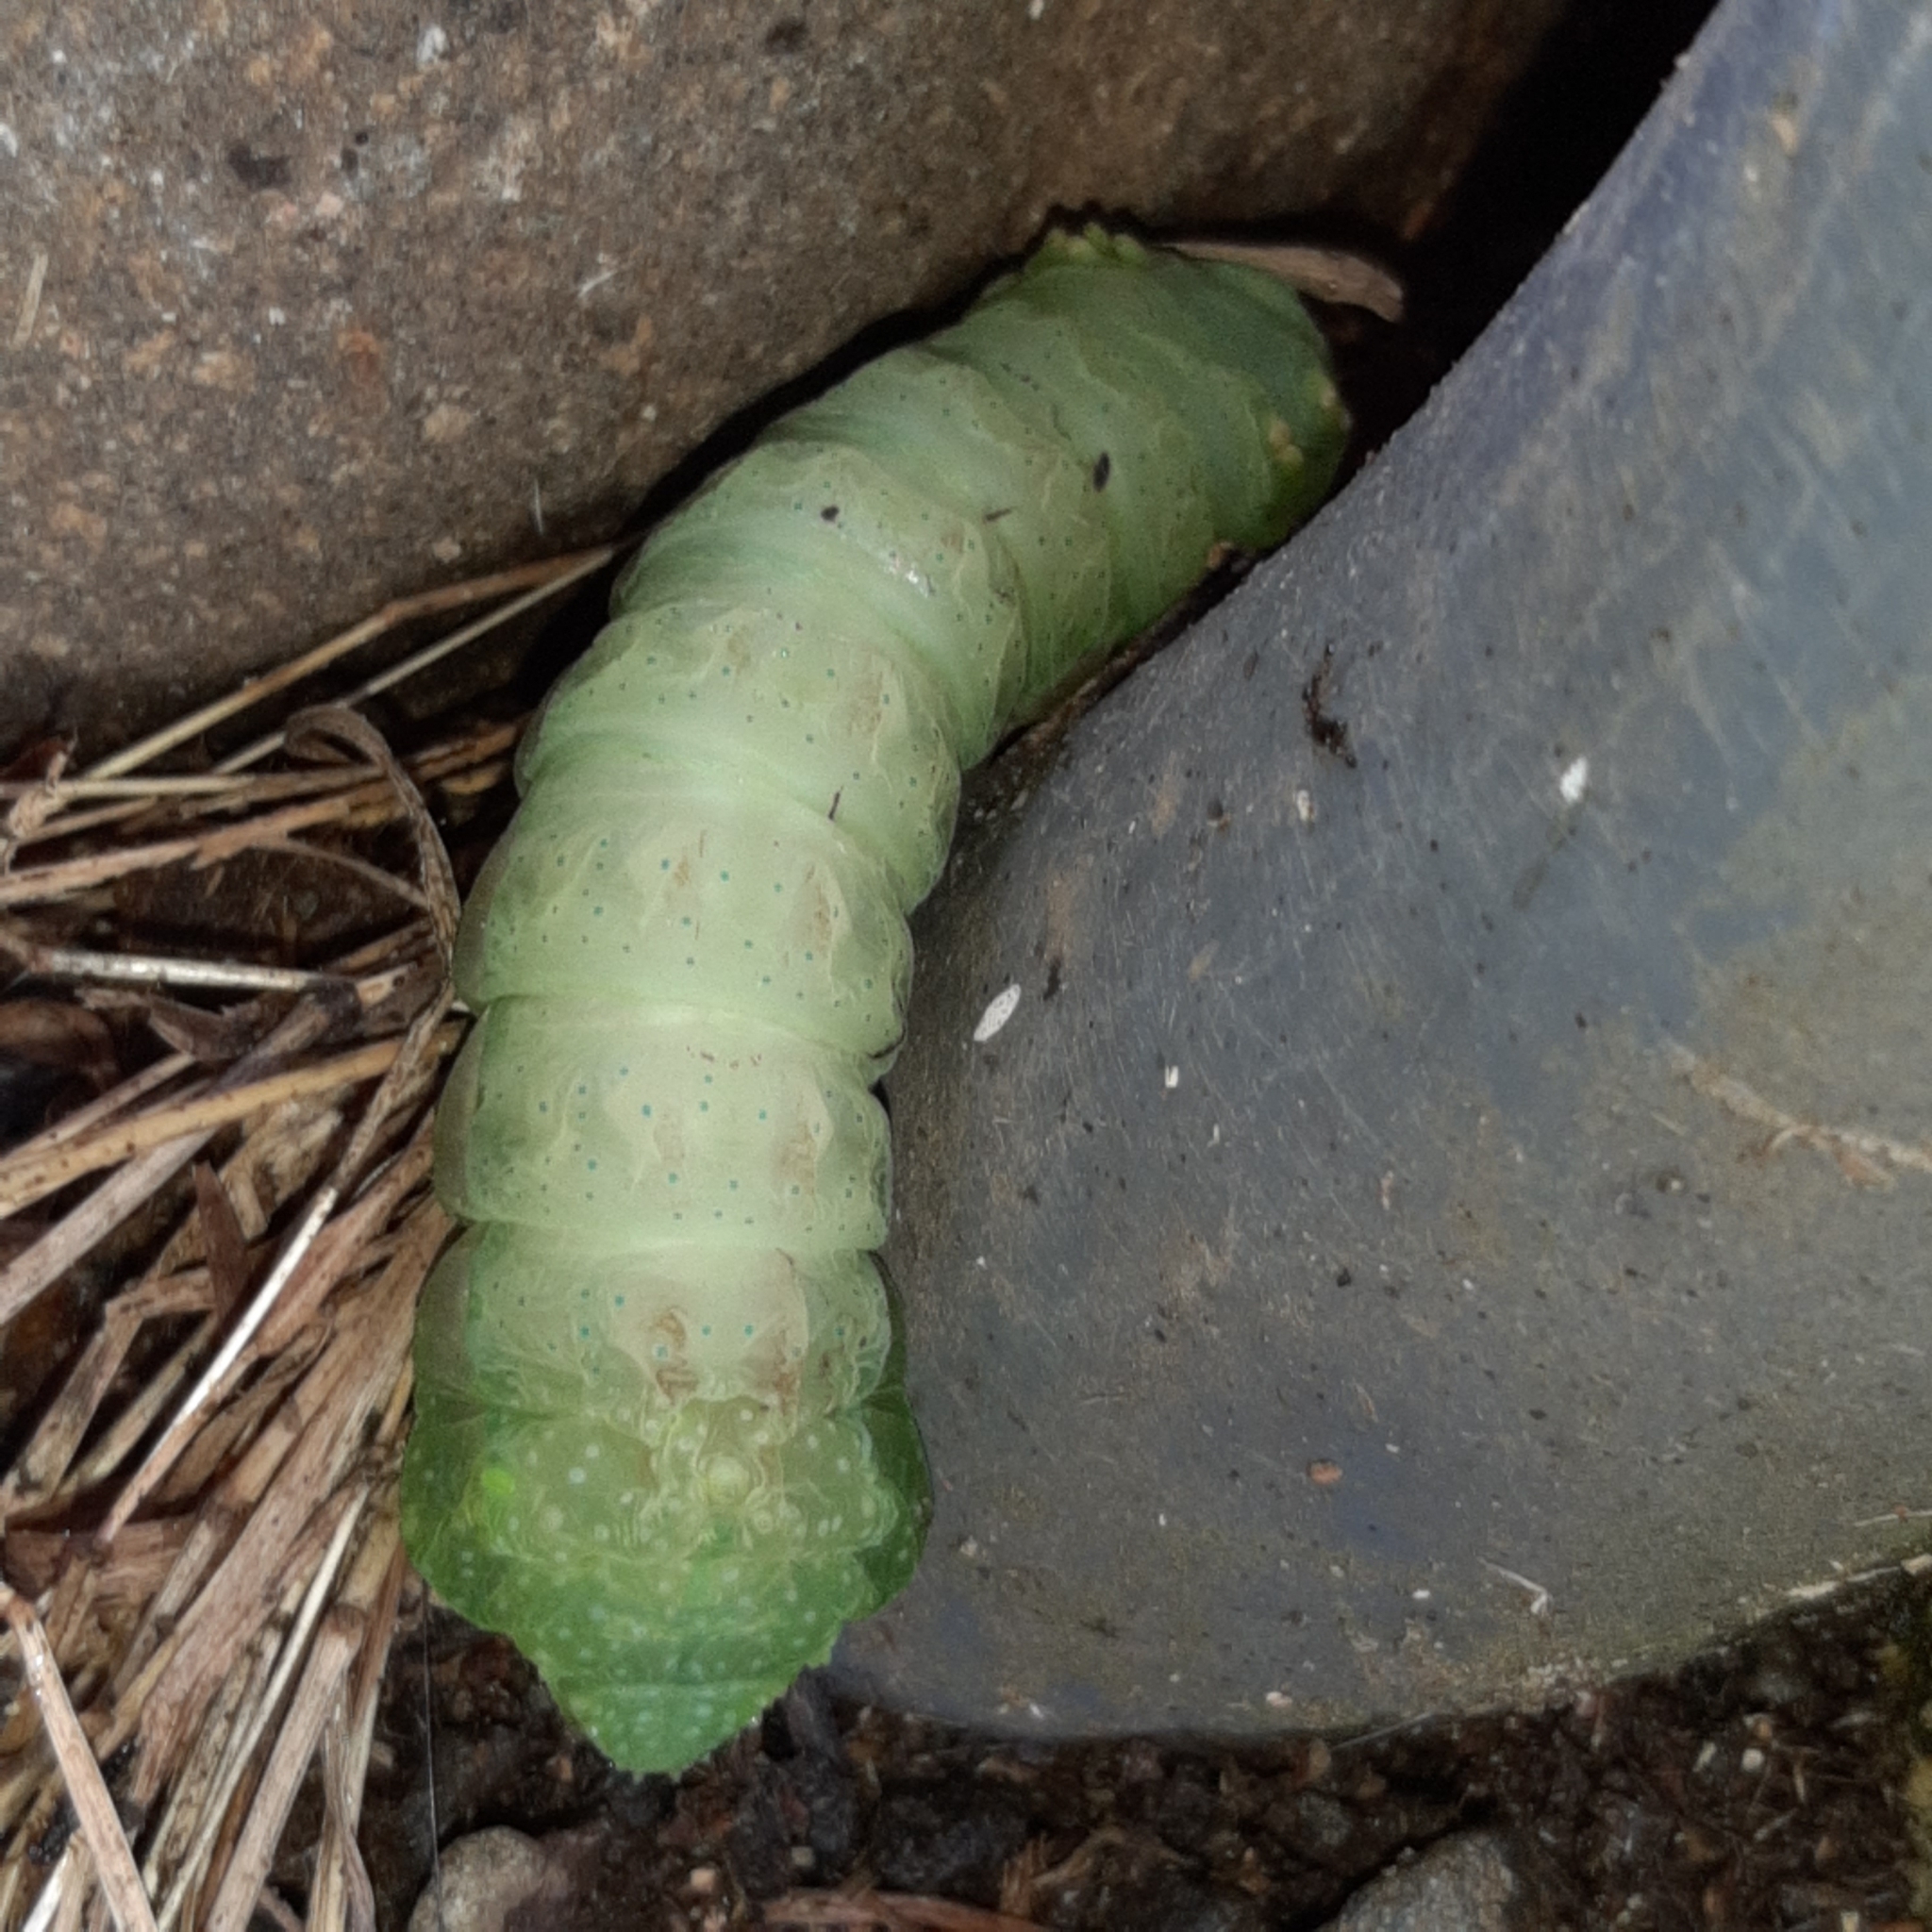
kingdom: Animalia
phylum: Arthropoda
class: Insecta
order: Lepidoptera
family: Saturniidae
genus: Syssphinx
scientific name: Syssphinx molina
